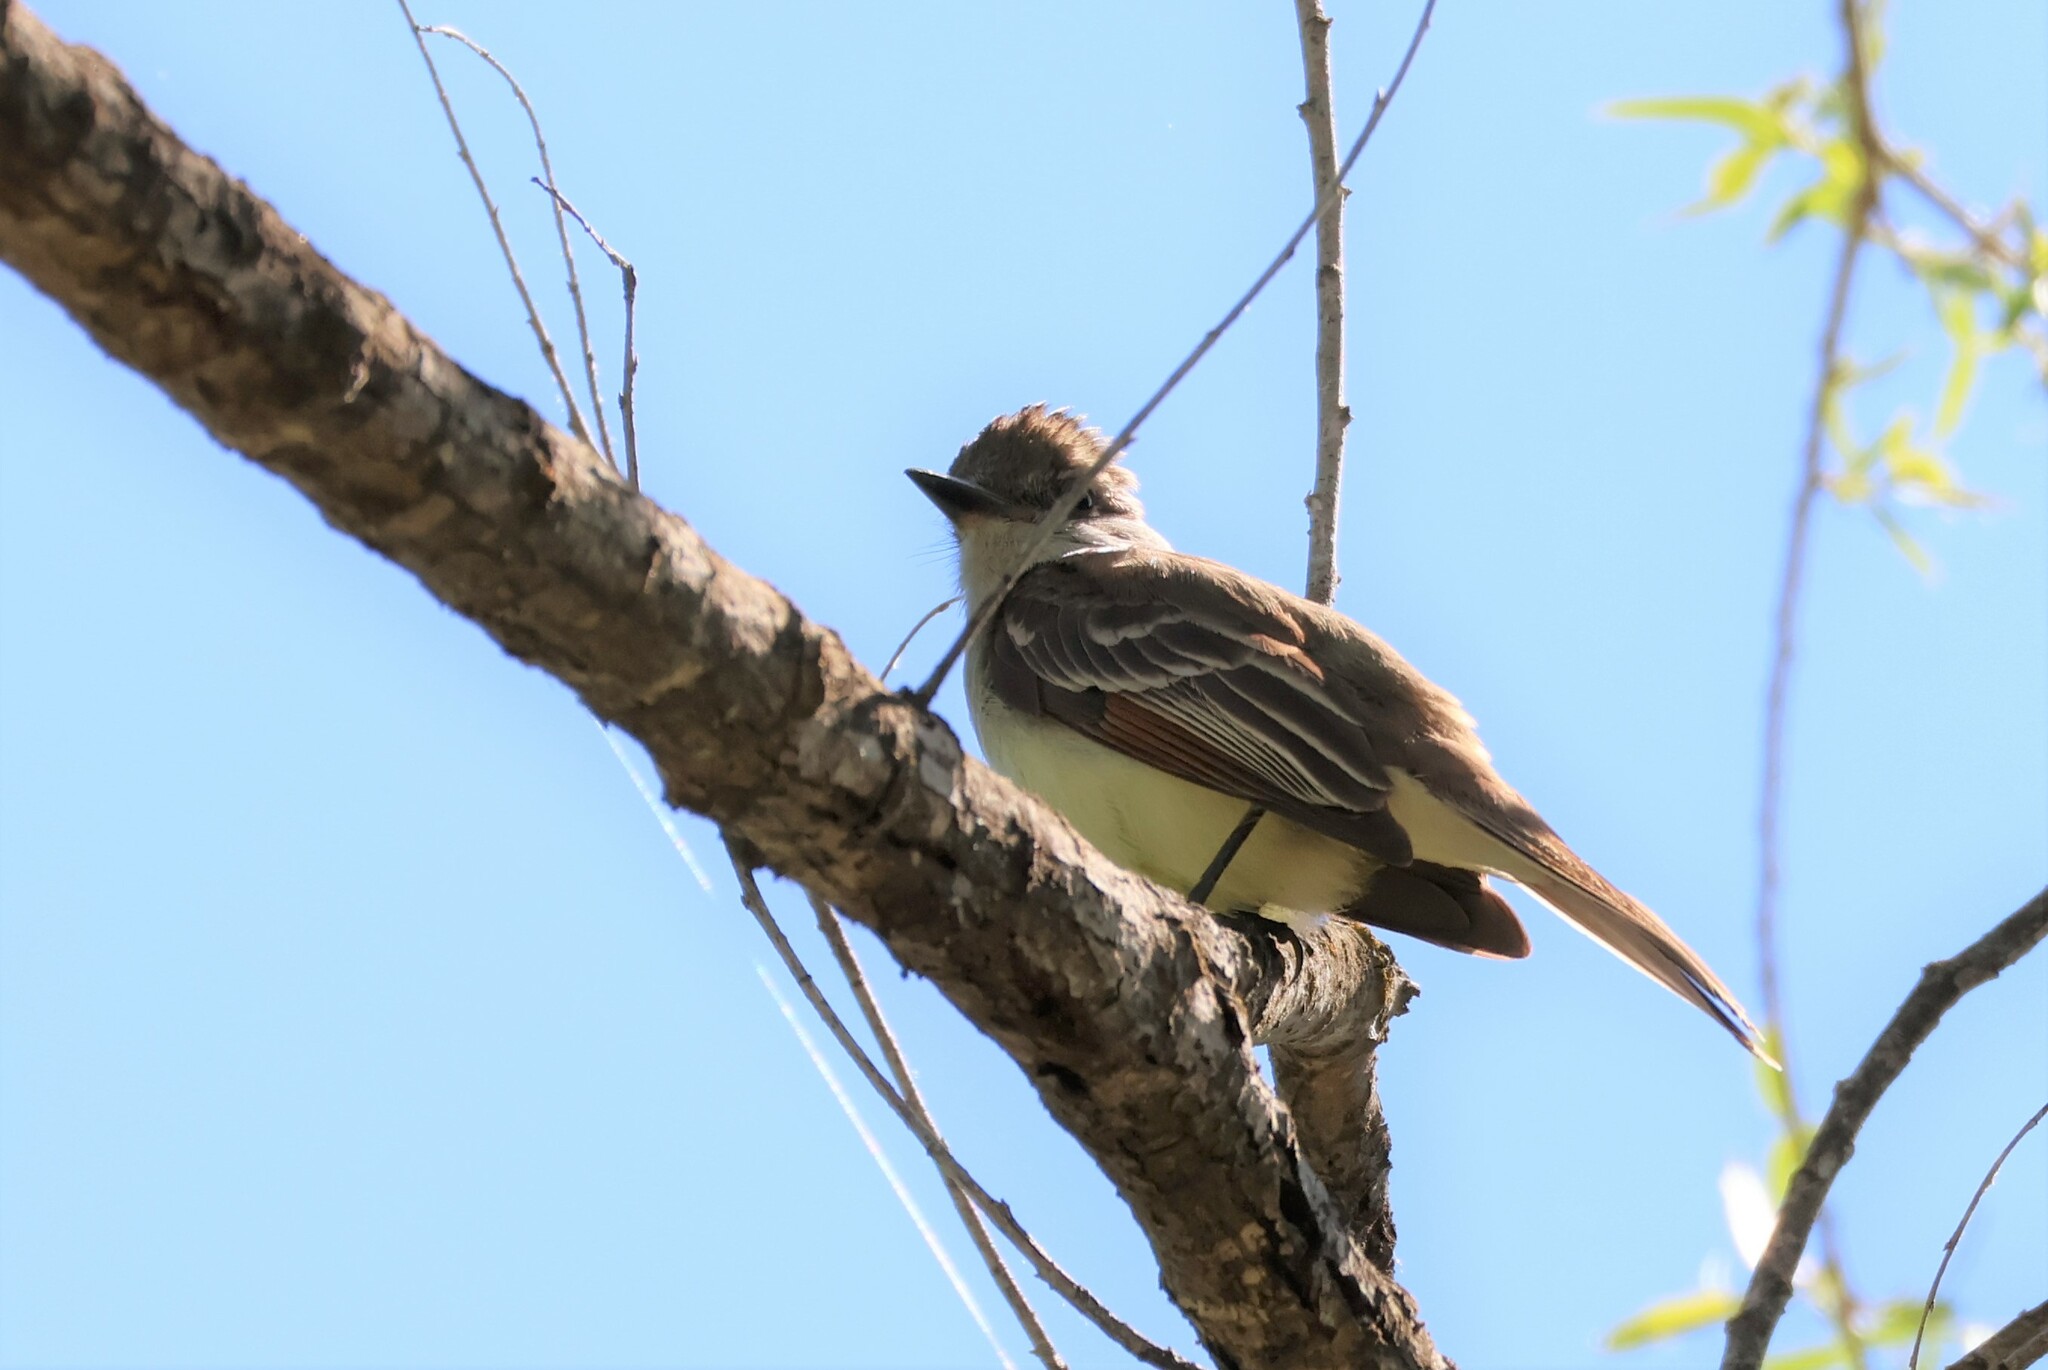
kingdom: Animalia
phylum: Chordata
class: Aves
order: Passeriformes
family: Tyrannidae
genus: Myiarchus
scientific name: Myiarchus cinerascens
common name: Ash-throated flycatcher
